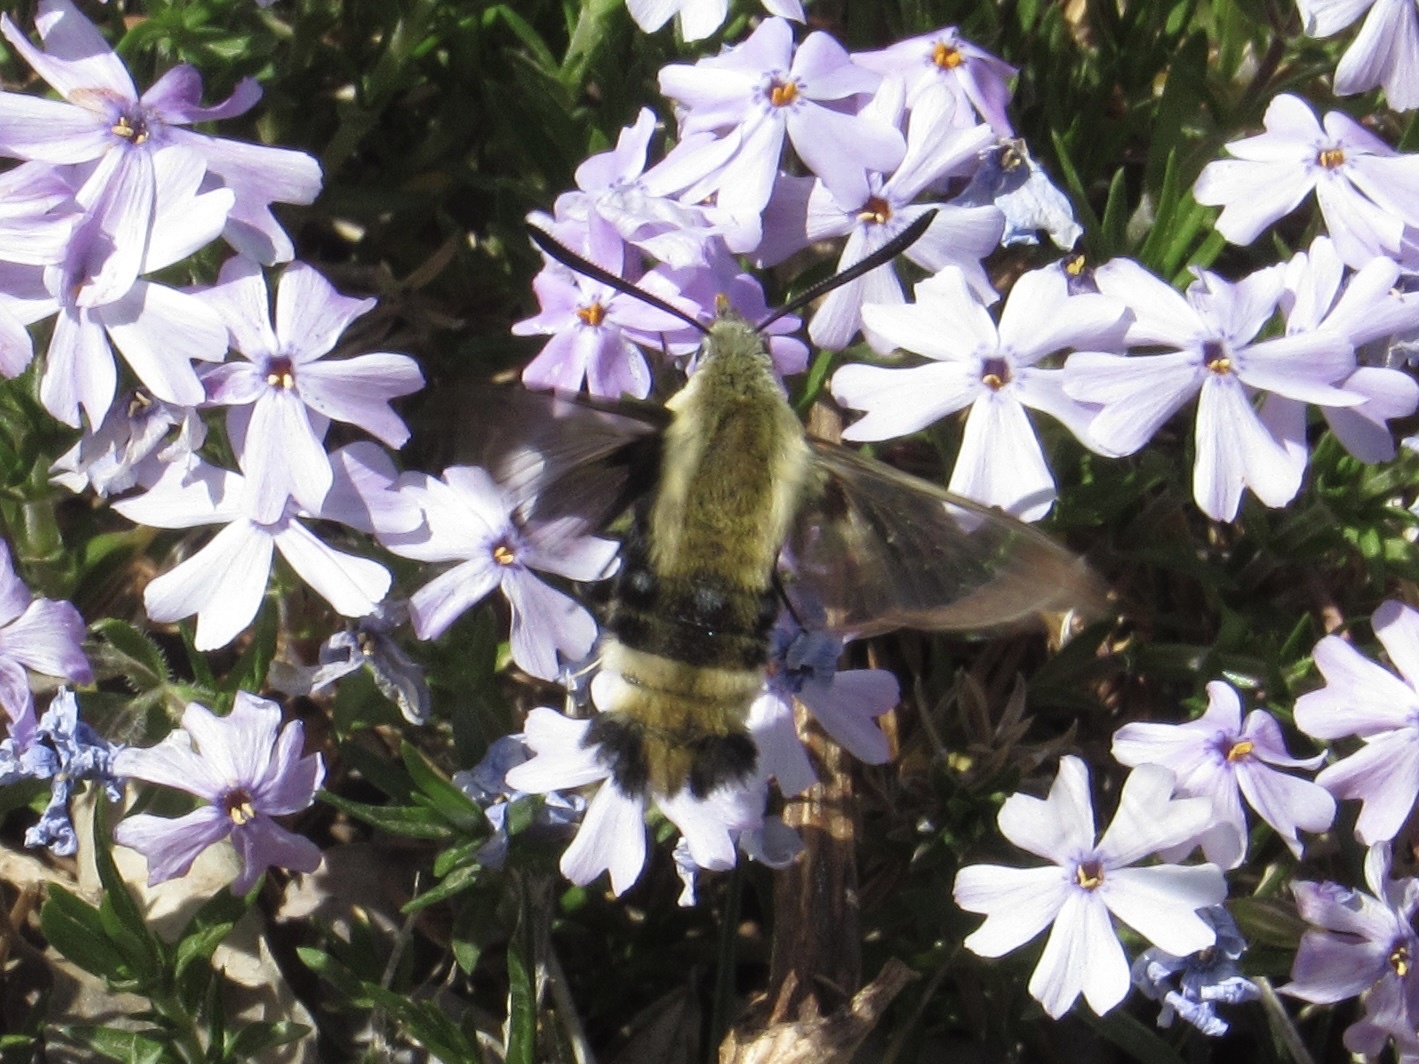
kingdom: Animalia
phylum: Arthropoda
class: Insecta
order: Lepidoptera
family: Sphingidae
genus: Hemaris
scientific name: Hemaris diffinis
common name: Bumblebee moth
